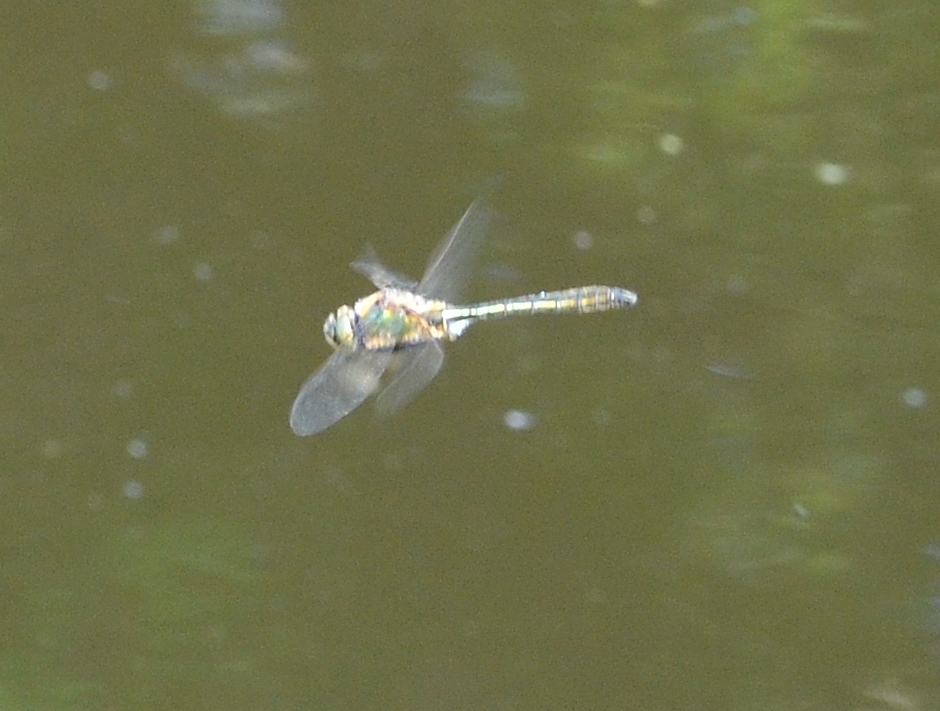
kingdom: Animalia
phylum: Arthropoda
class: Insecta
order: Odonata
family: Corduliidae
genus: Cordulia
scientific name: Cordulia aenea
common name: Downy emerald
